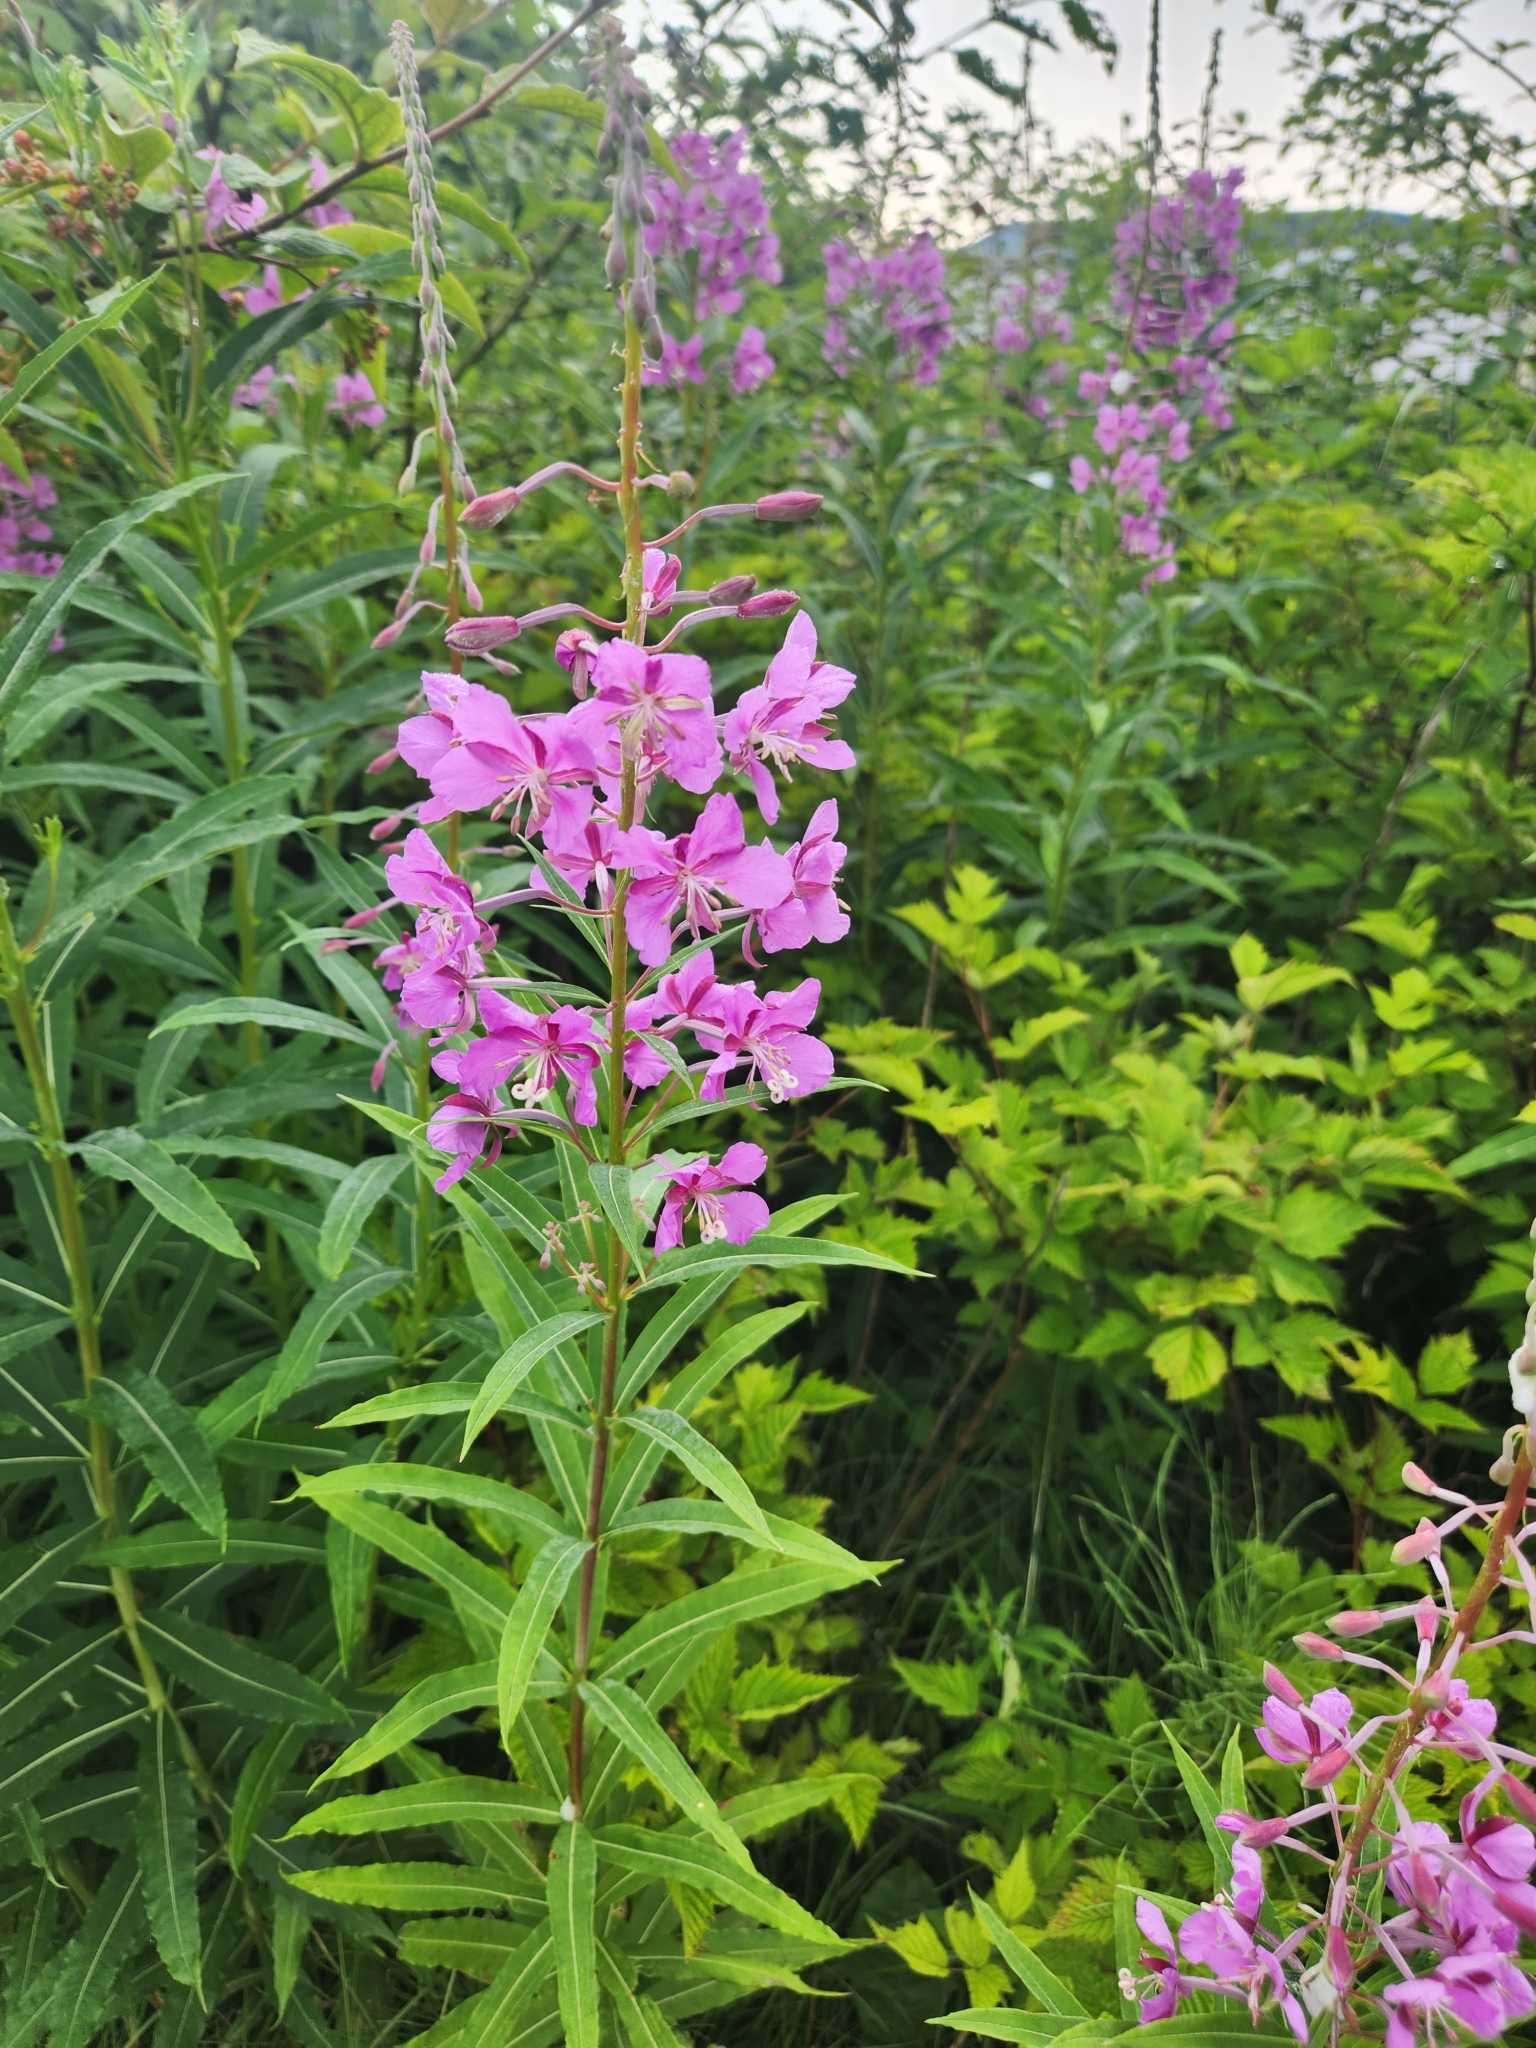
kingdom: Plantae
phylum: Tracheophyta
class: Magnoliopsida
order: Myrtales
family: Onagraceae
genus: Chamaenerion
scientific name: Chamaenerion angustifolium
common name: Fireweed
